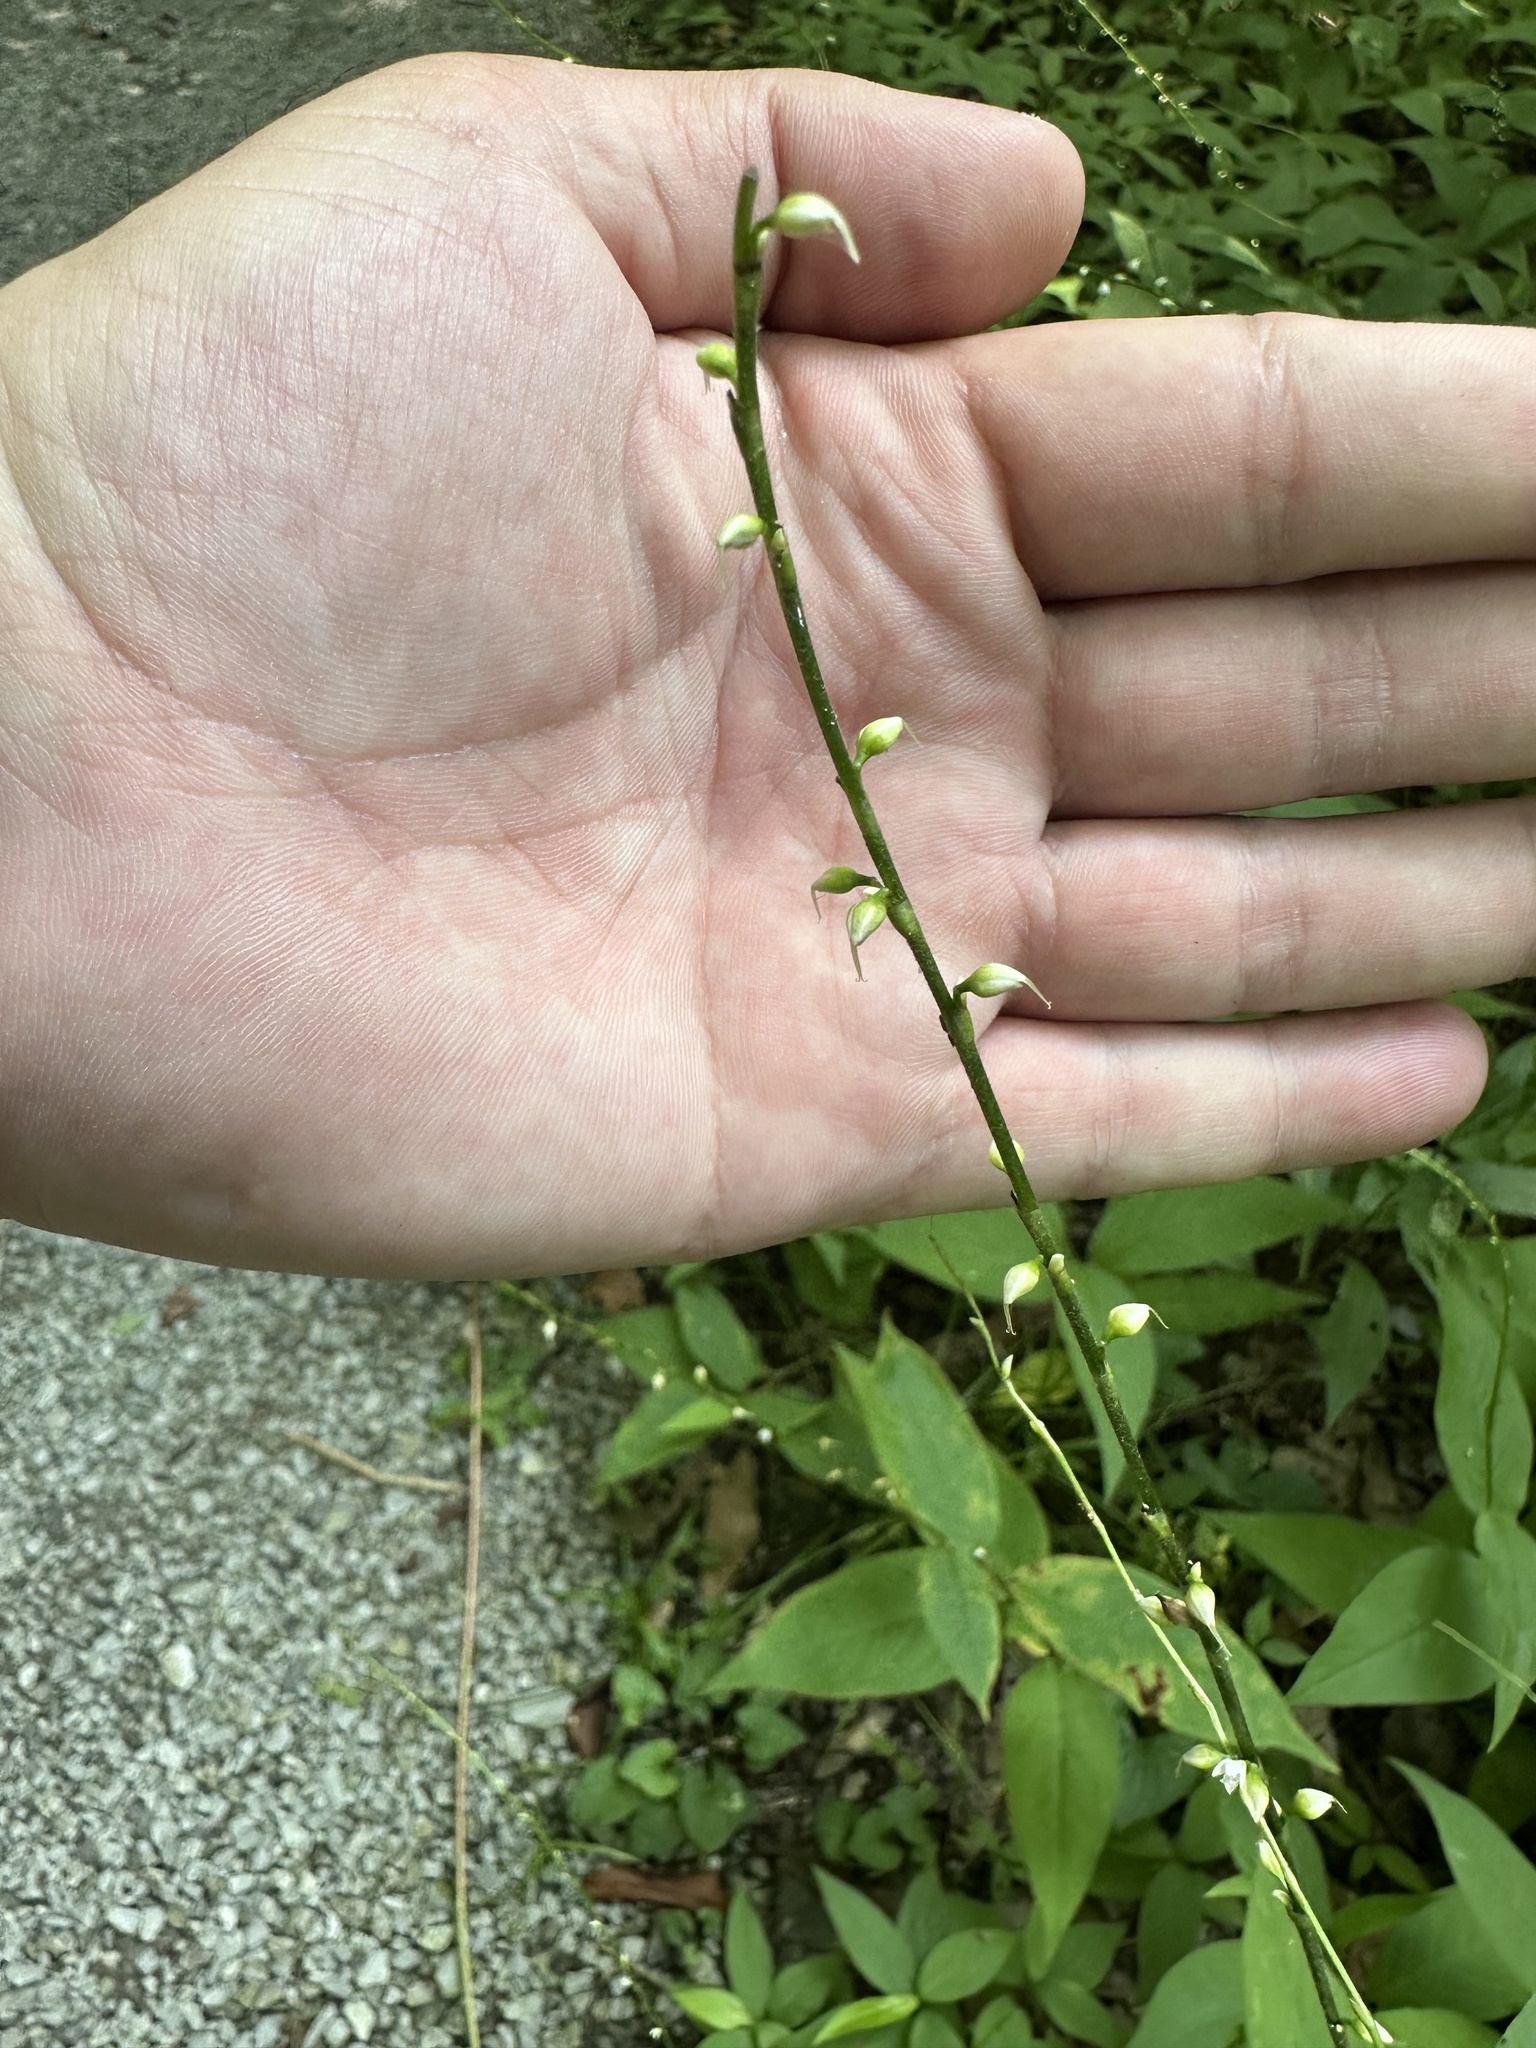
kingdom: Plantae
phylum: Tracheophyta
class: Magnoliopsida
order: Caryophyllales
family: Polygonaceae
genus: Persicaria
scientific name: Persicaria virginiana
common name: Jumpseed
